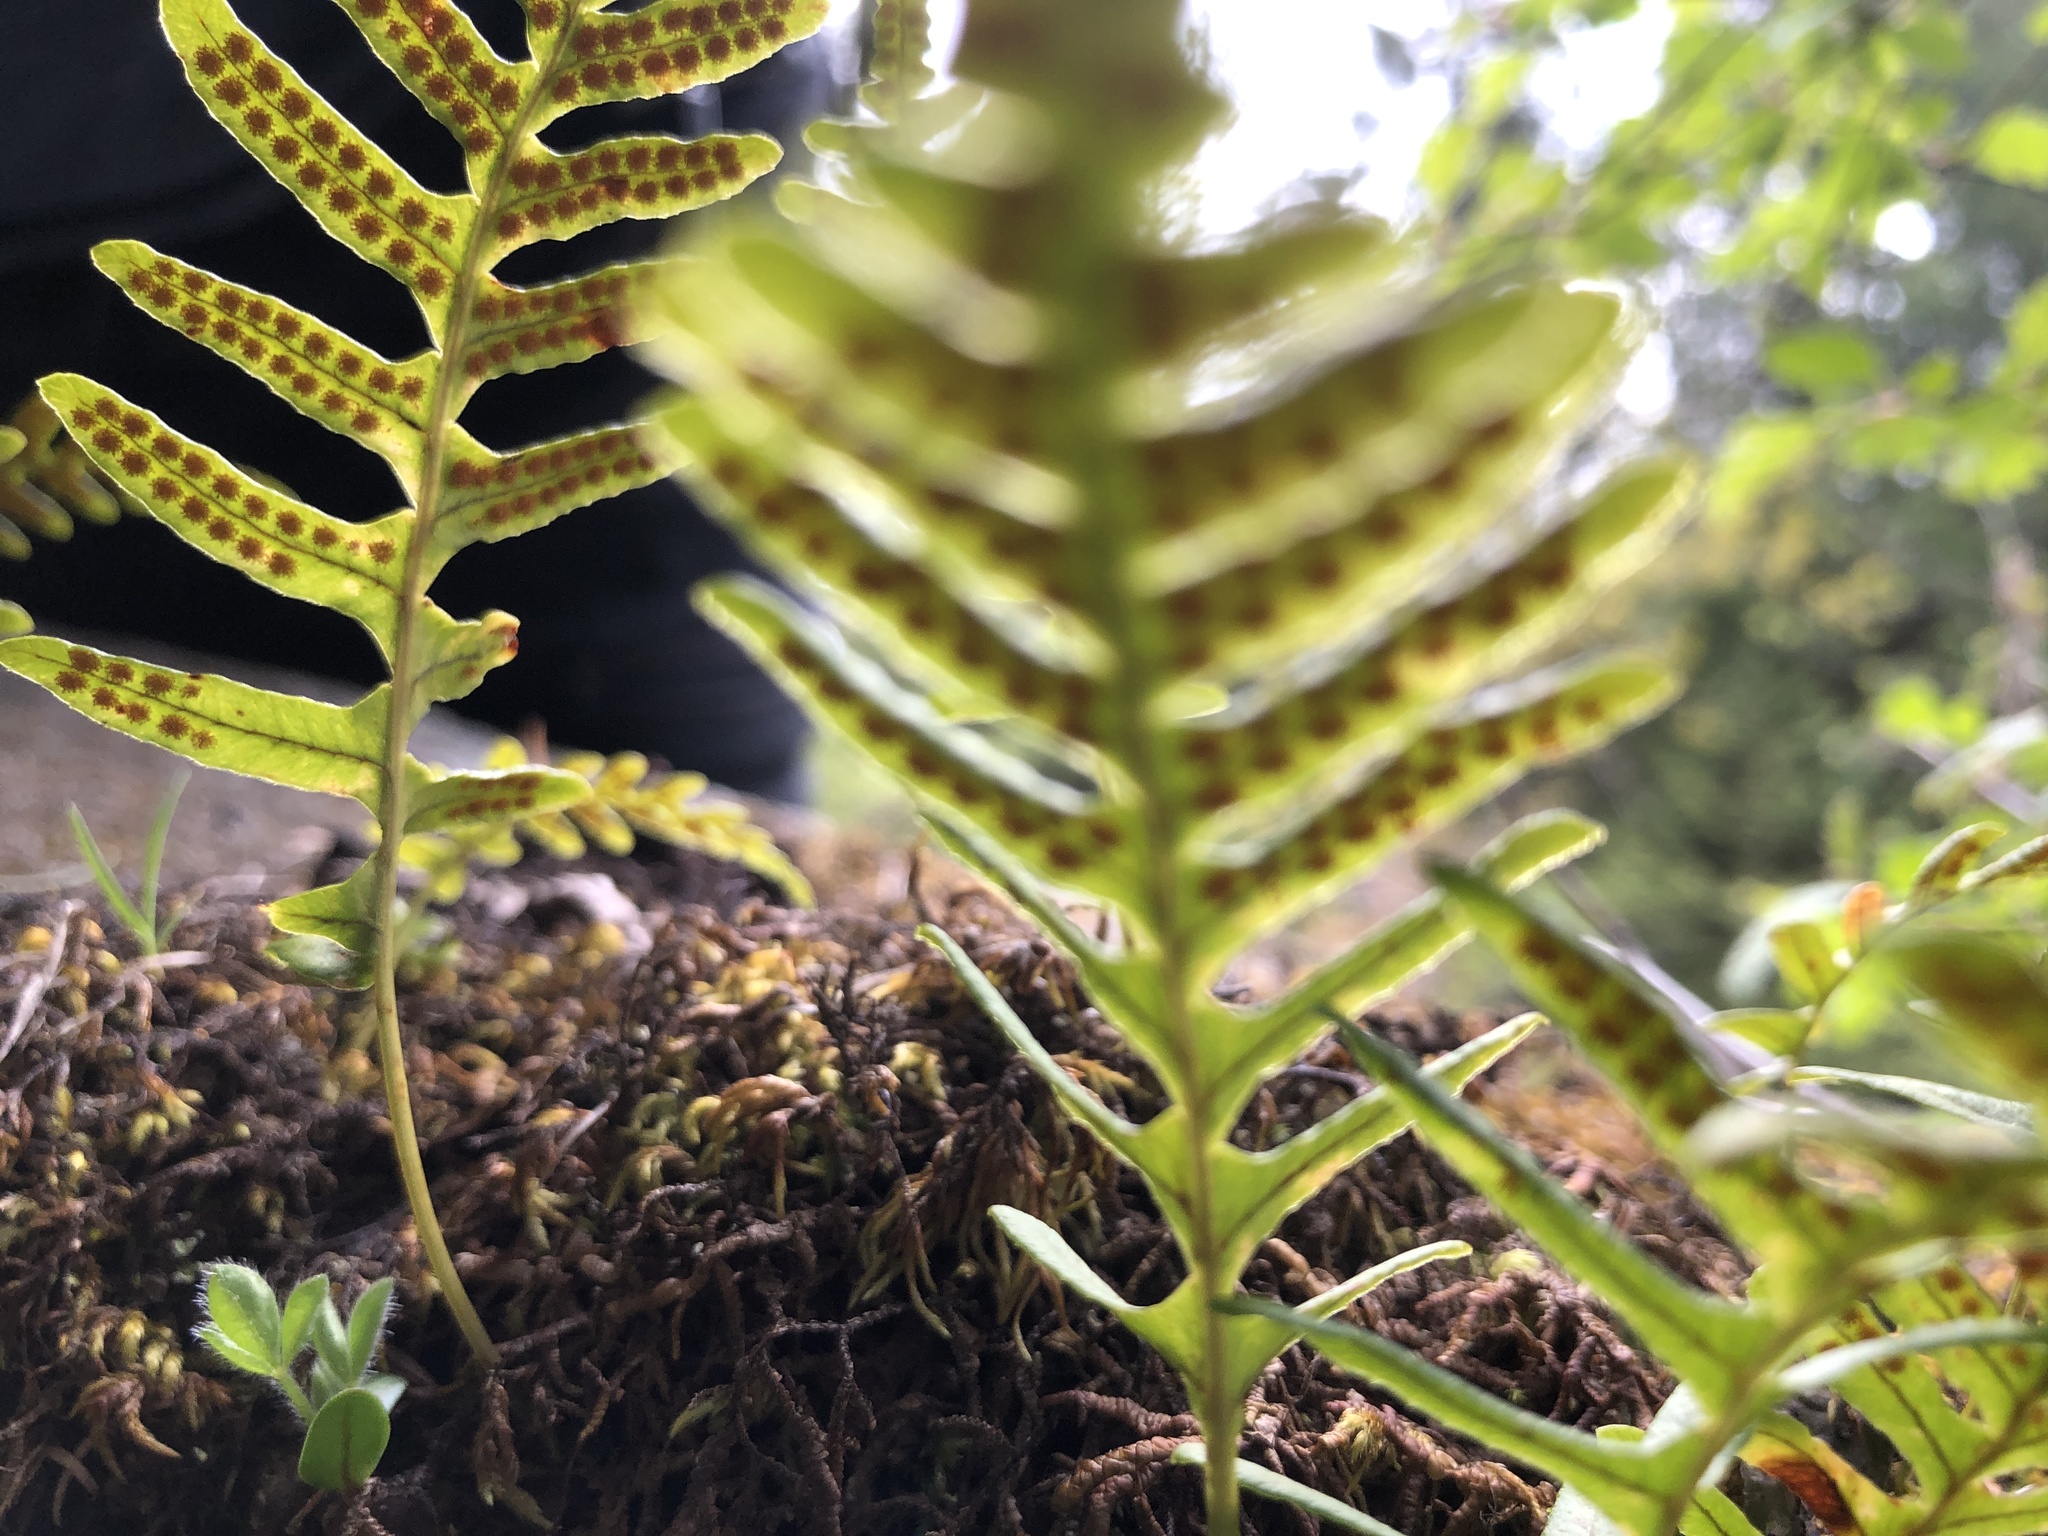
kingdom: Plantae
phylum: Tracheophyta
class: Polypodiopsida
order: Polypodiales
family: Polypodiaceae
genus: Polypodium
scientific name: Polypodium glycyrrhiza
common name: Licorice fern
